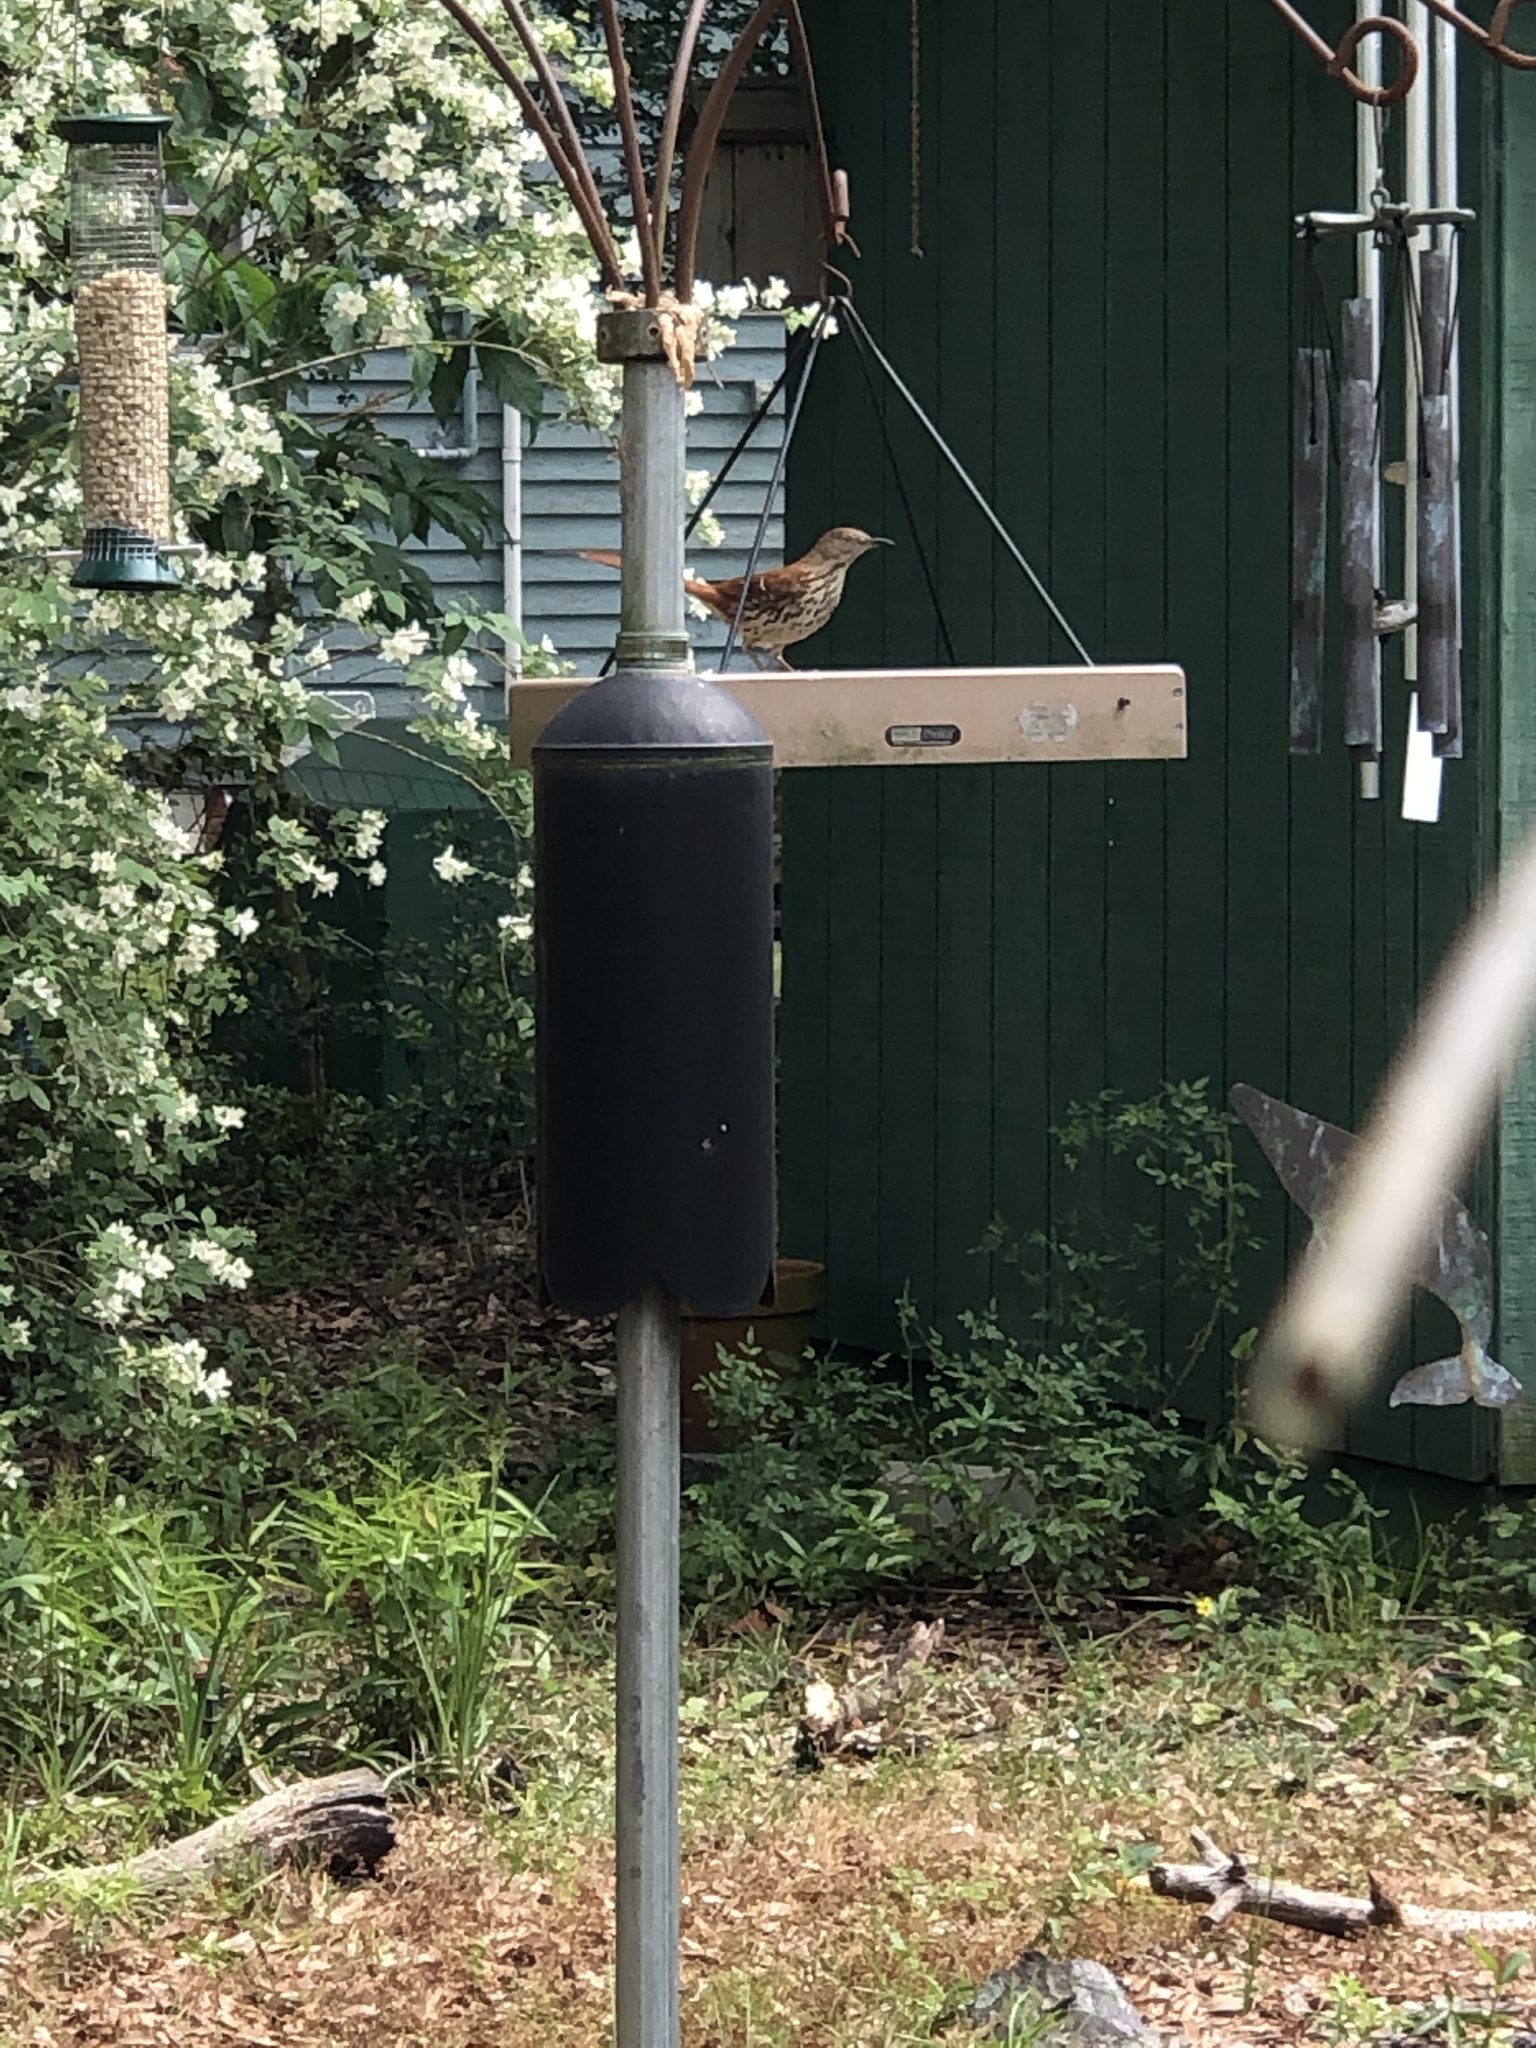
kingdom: Animalia
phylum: Chordata
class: Aves
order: Passeriformes
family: Mimidae
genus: Toxostoma
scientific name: Toxostoma rufum
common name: Brown thrasher
